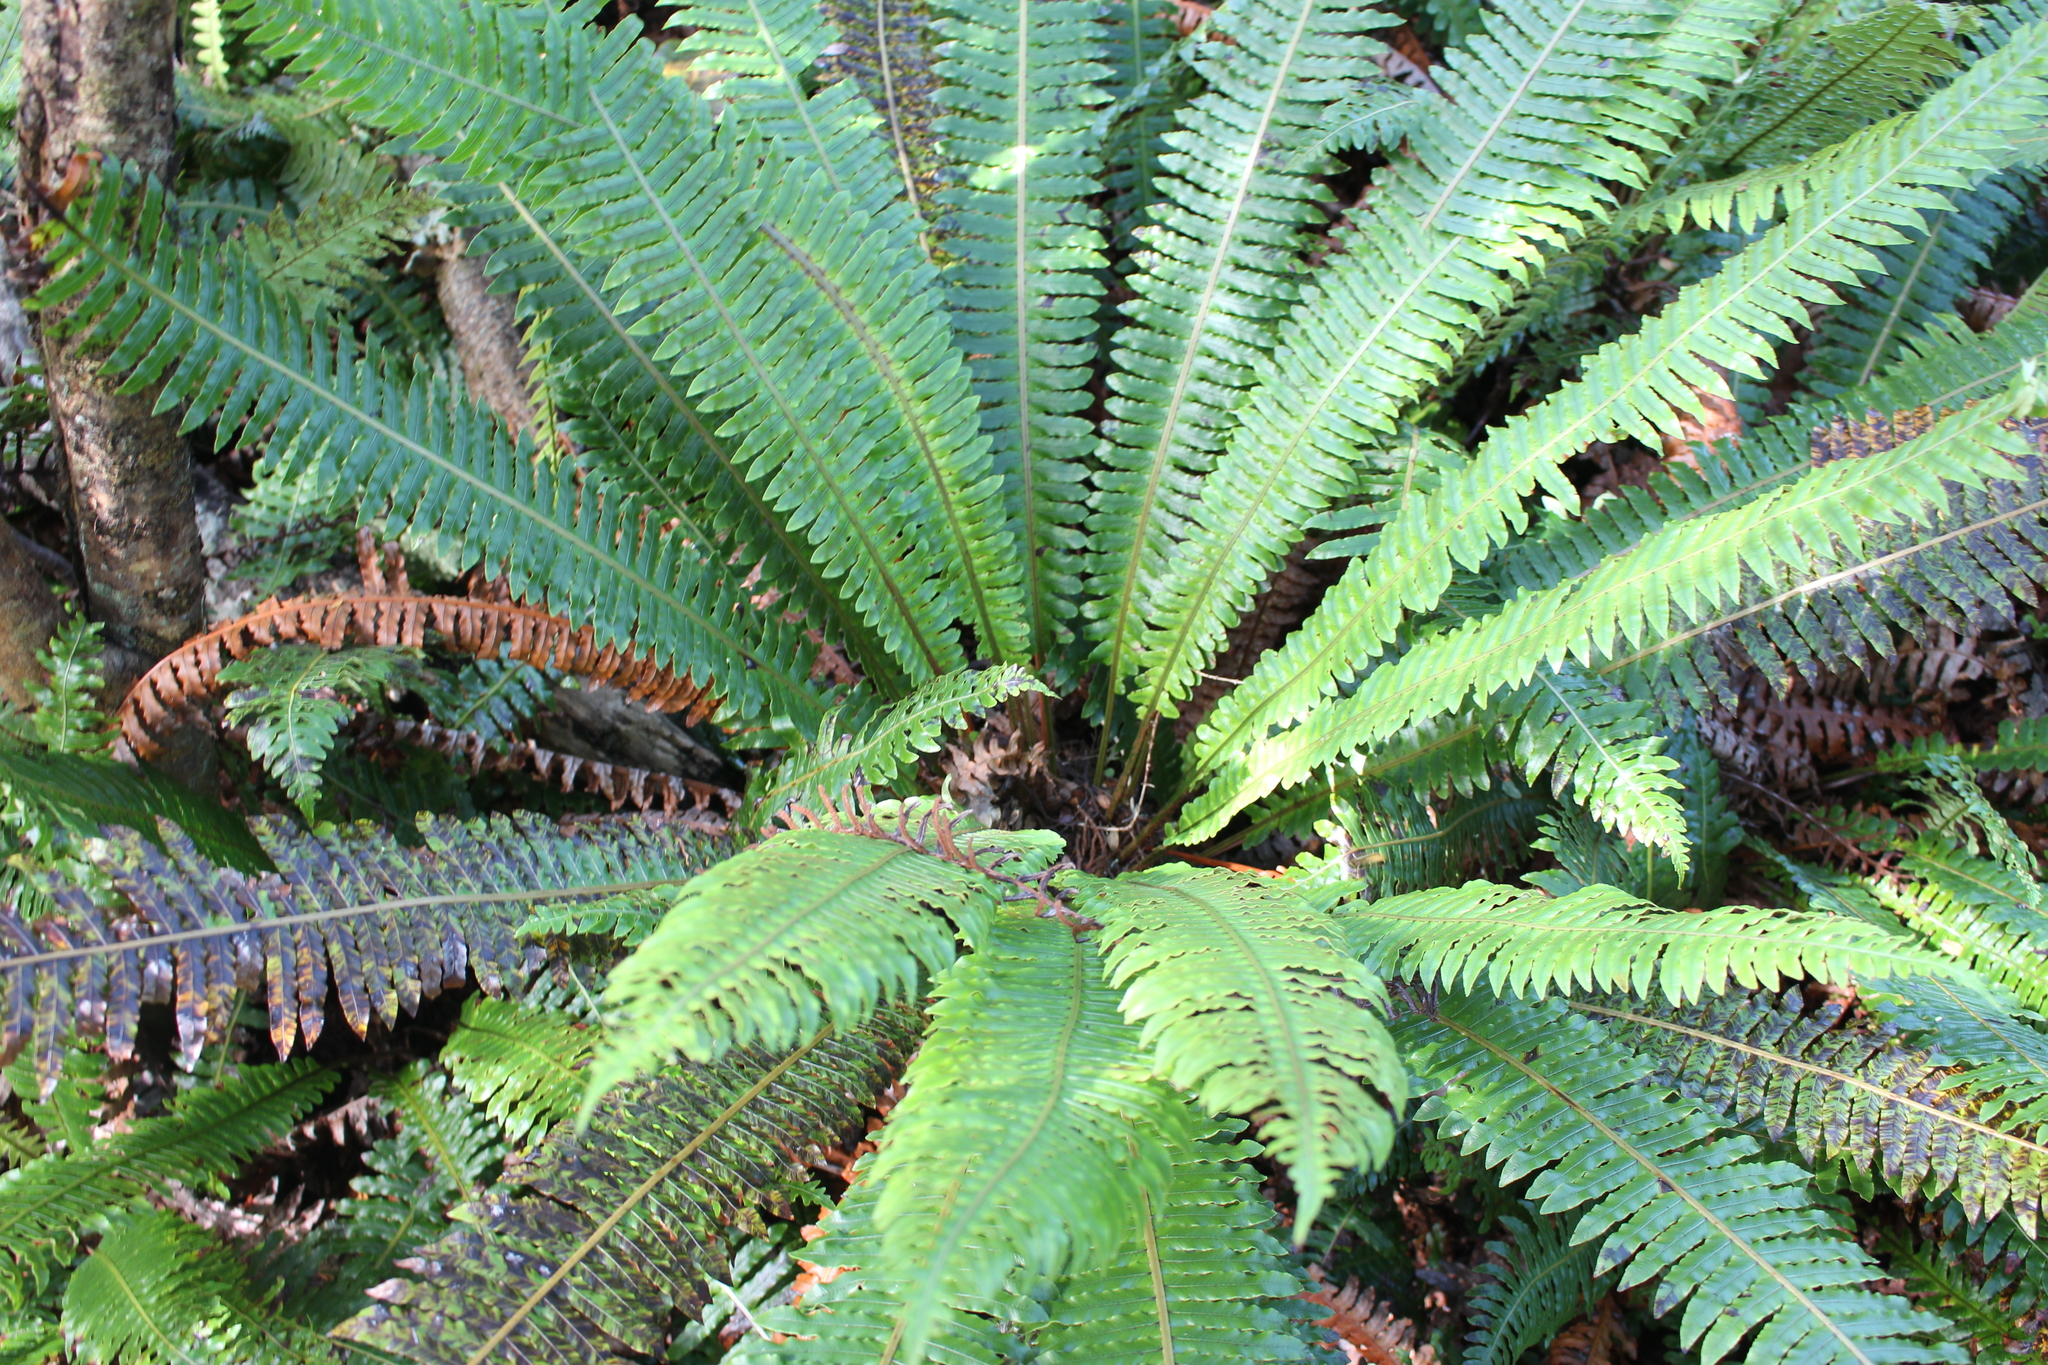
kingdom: Plantae
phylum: Tracheophyta
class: Polypodiopsida
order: Polypodiales
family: Blechnaceae
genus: Lomaria
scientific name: Lomaria discolor
